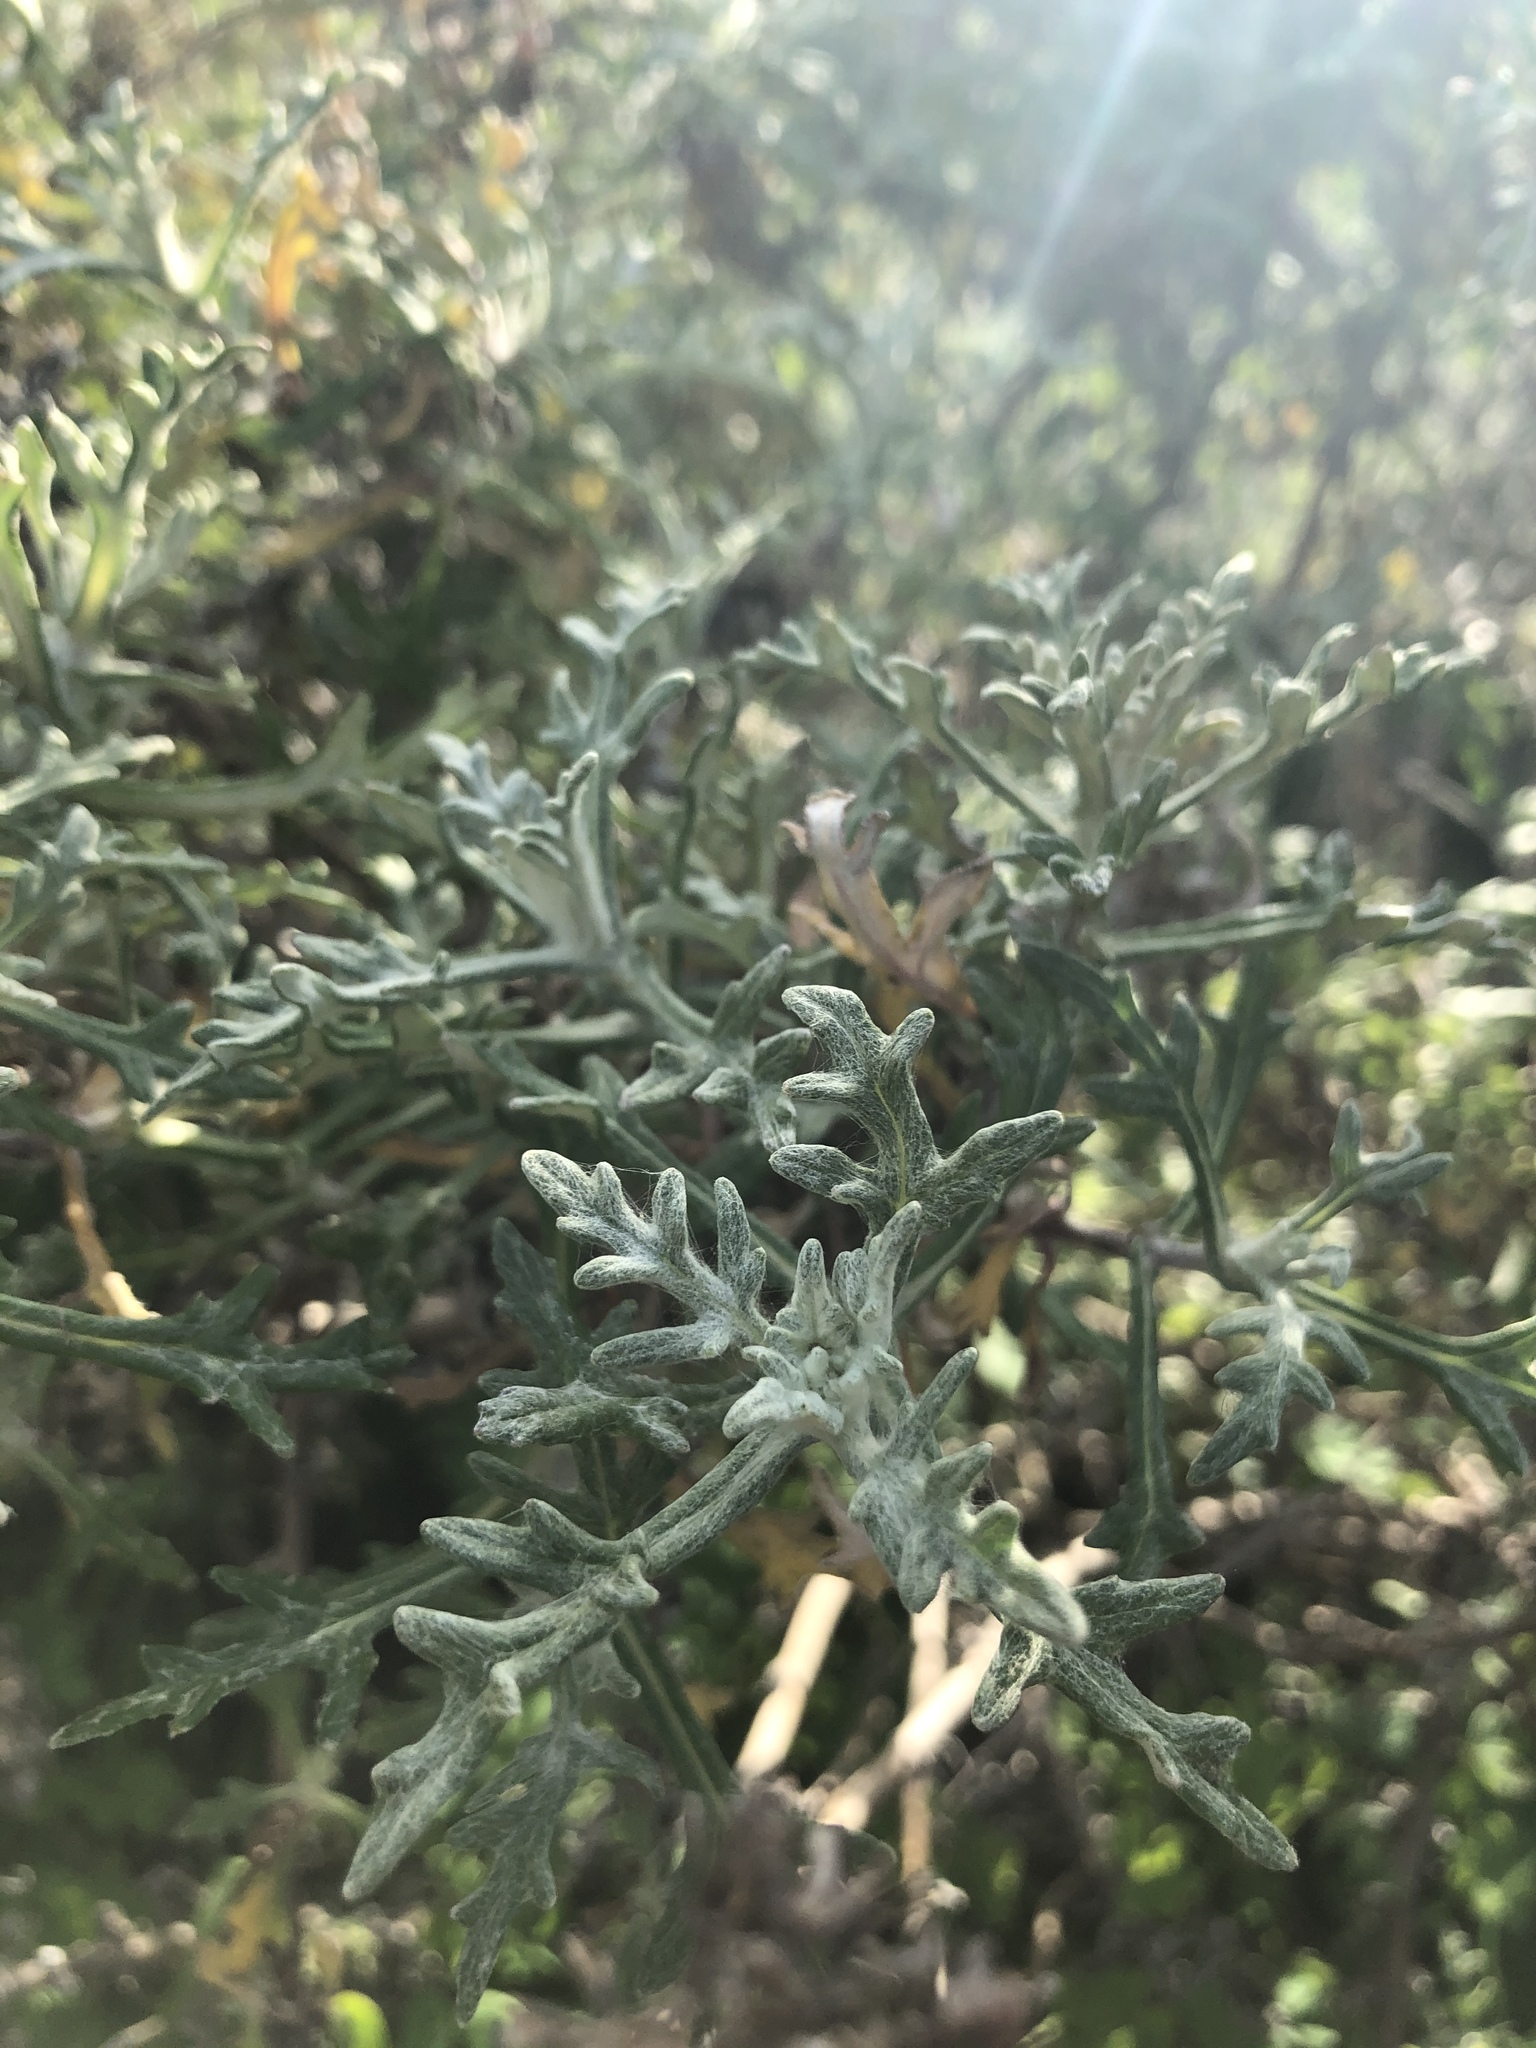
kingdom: Plantae
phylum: Tracheophyta
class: Magnoliopsida
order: Asterales
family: Asteraceae
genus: Eriophyllum
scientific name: Eriophyllum staechadifolium
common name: Lizardtail
